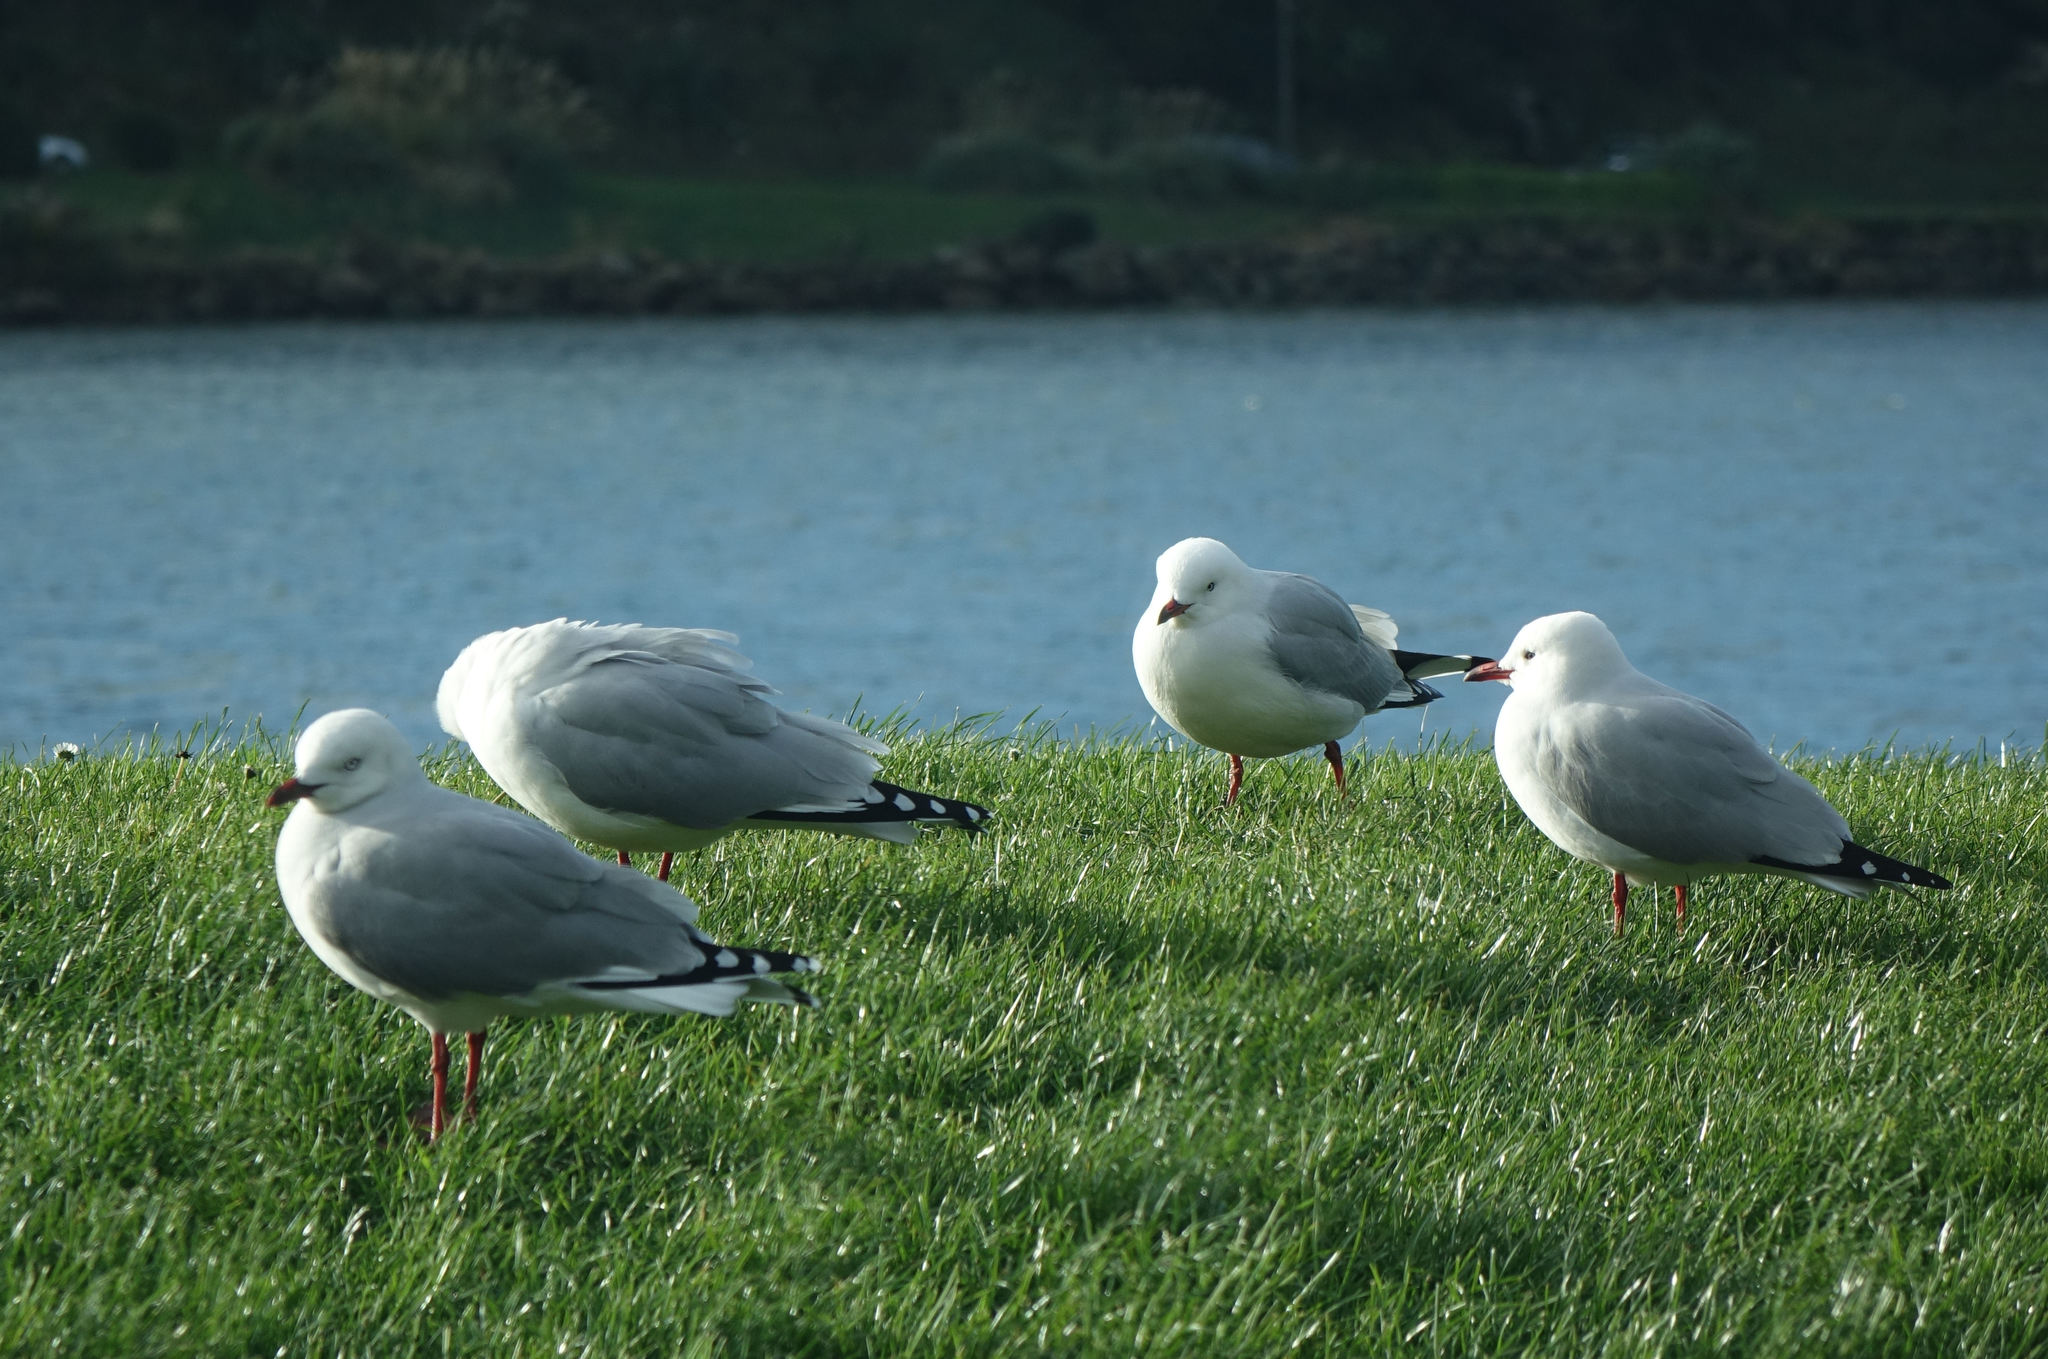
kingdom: Animalia
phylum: Chordata
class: Aves
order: Charadriiformes
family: Laridae
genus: Chroicocephalus
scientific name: Chroicocephalus novaehollandiae
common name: Silver gull
